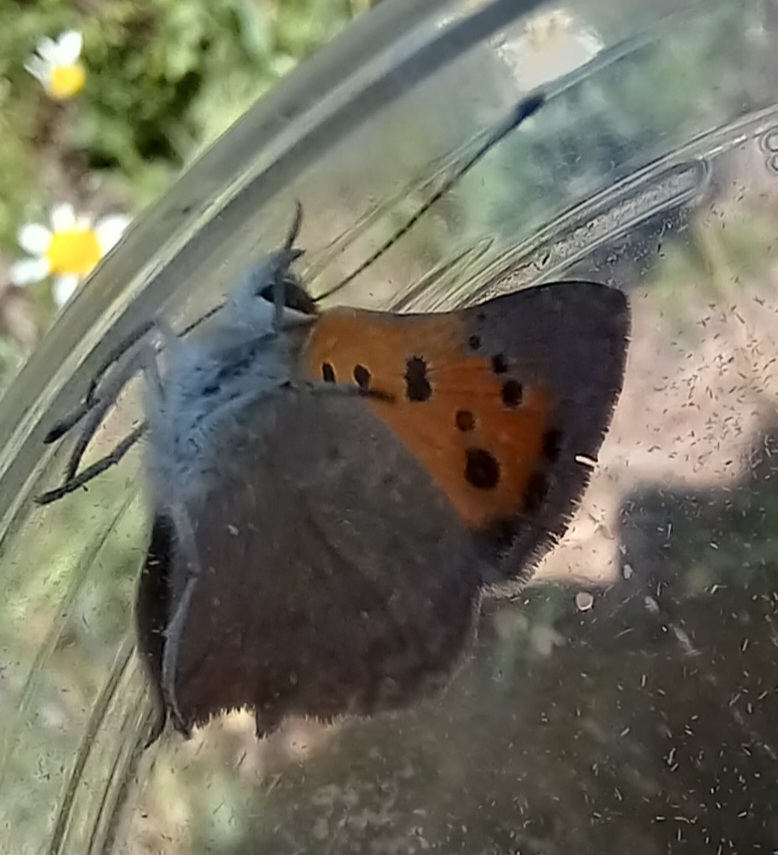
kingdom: Animalia
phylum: Arthropoda
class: Insecta
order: Lepidoptera
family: Lycaenidae
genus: Lycaena
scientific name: Lycaena phlaeas
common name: Small copper
